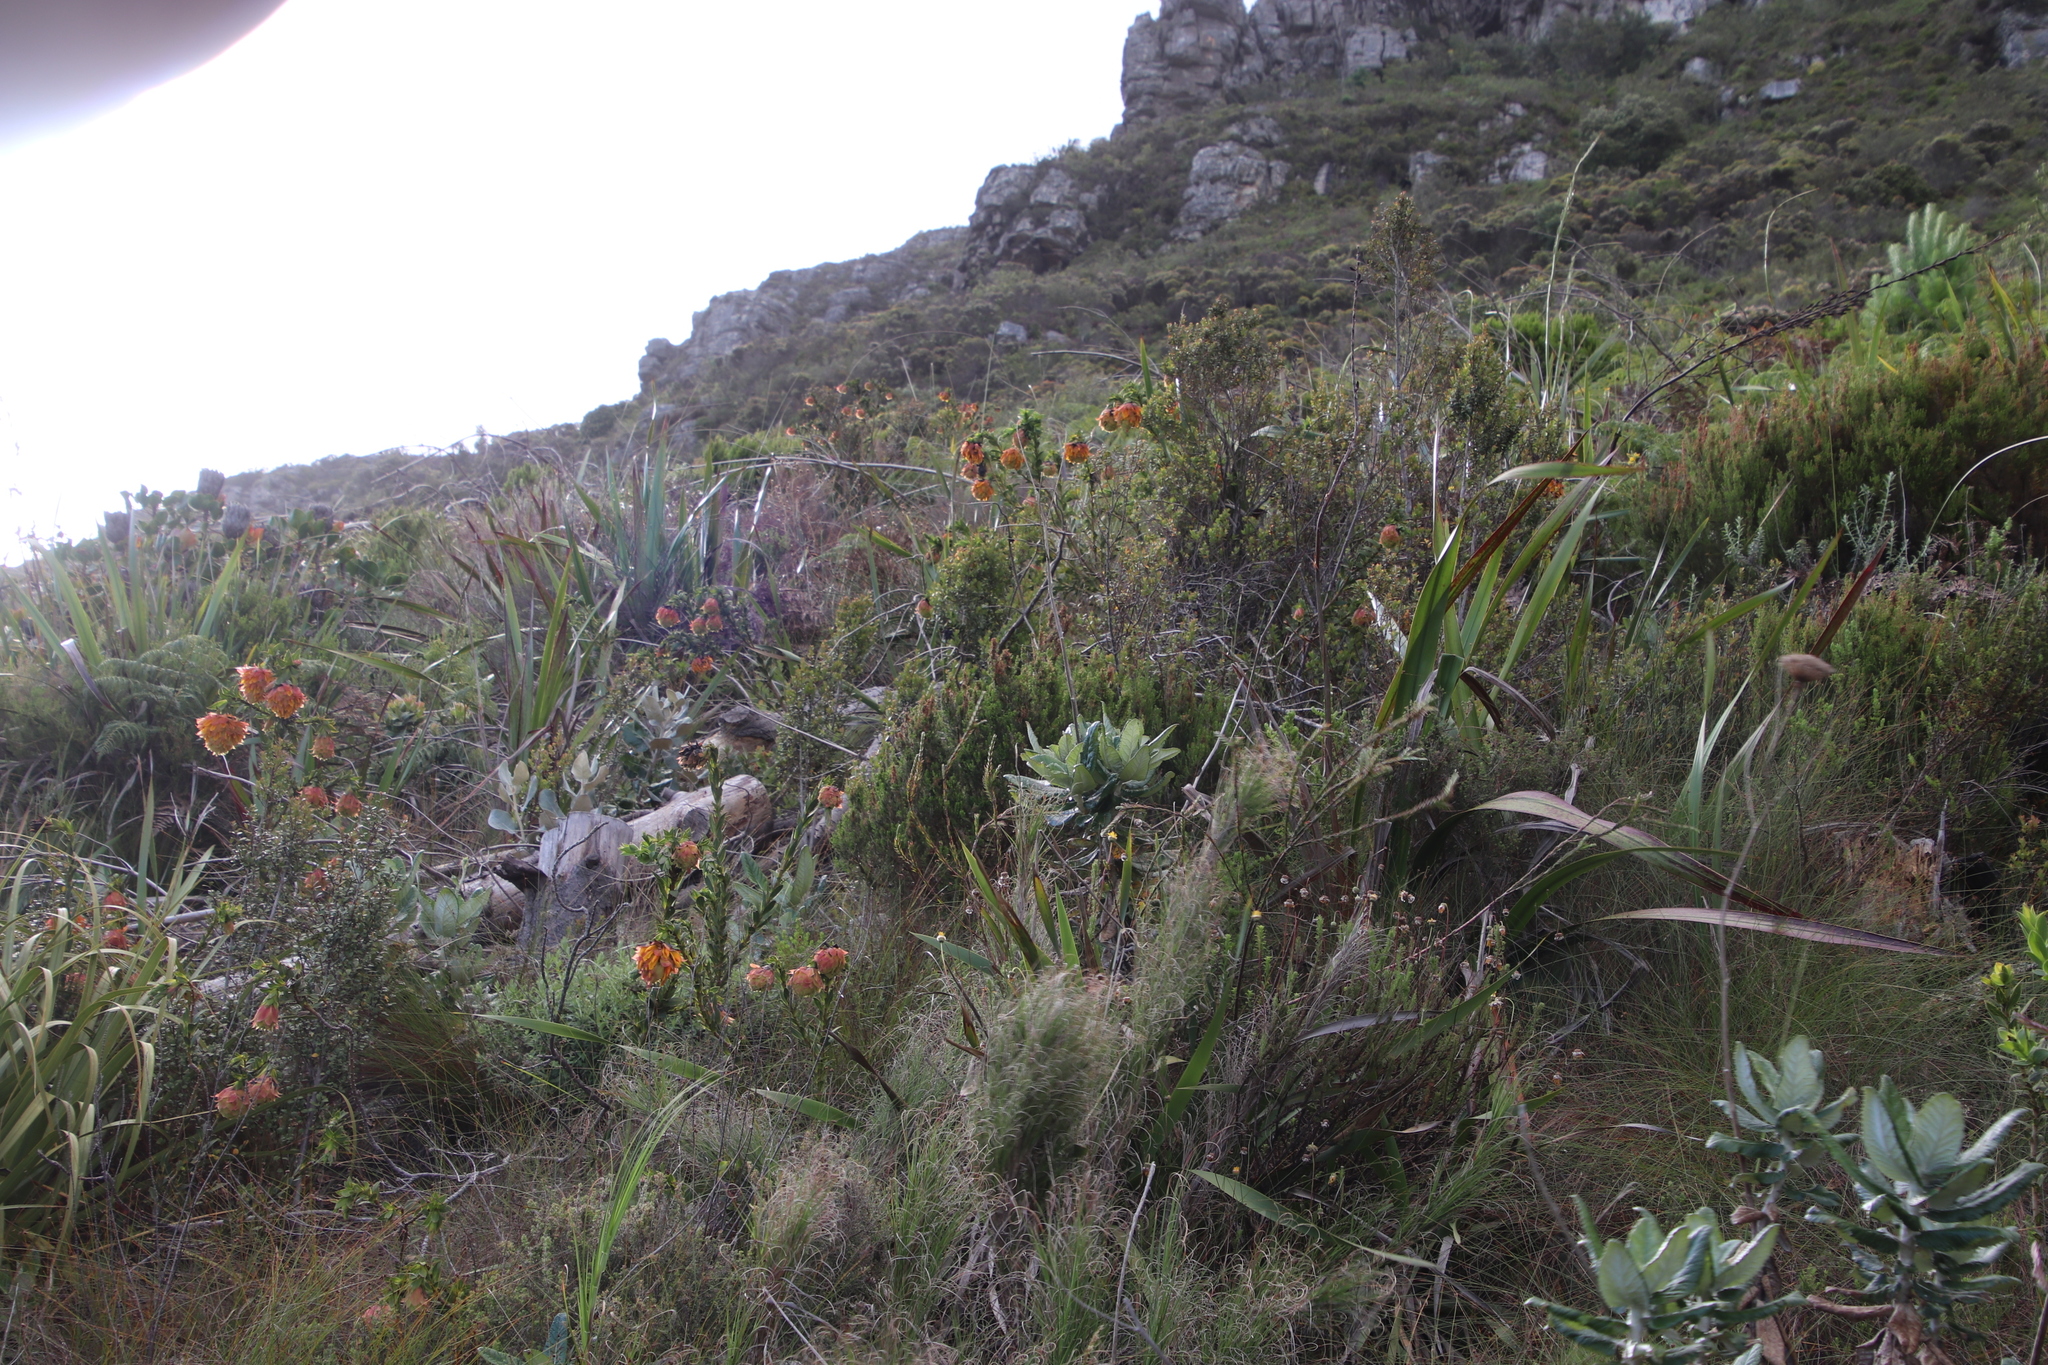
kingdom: Plantae
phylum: Tracheophyta
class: Magnoliopsida
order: Fabales
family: Fabaceae
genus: Liparia
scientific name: Liparia splendens
